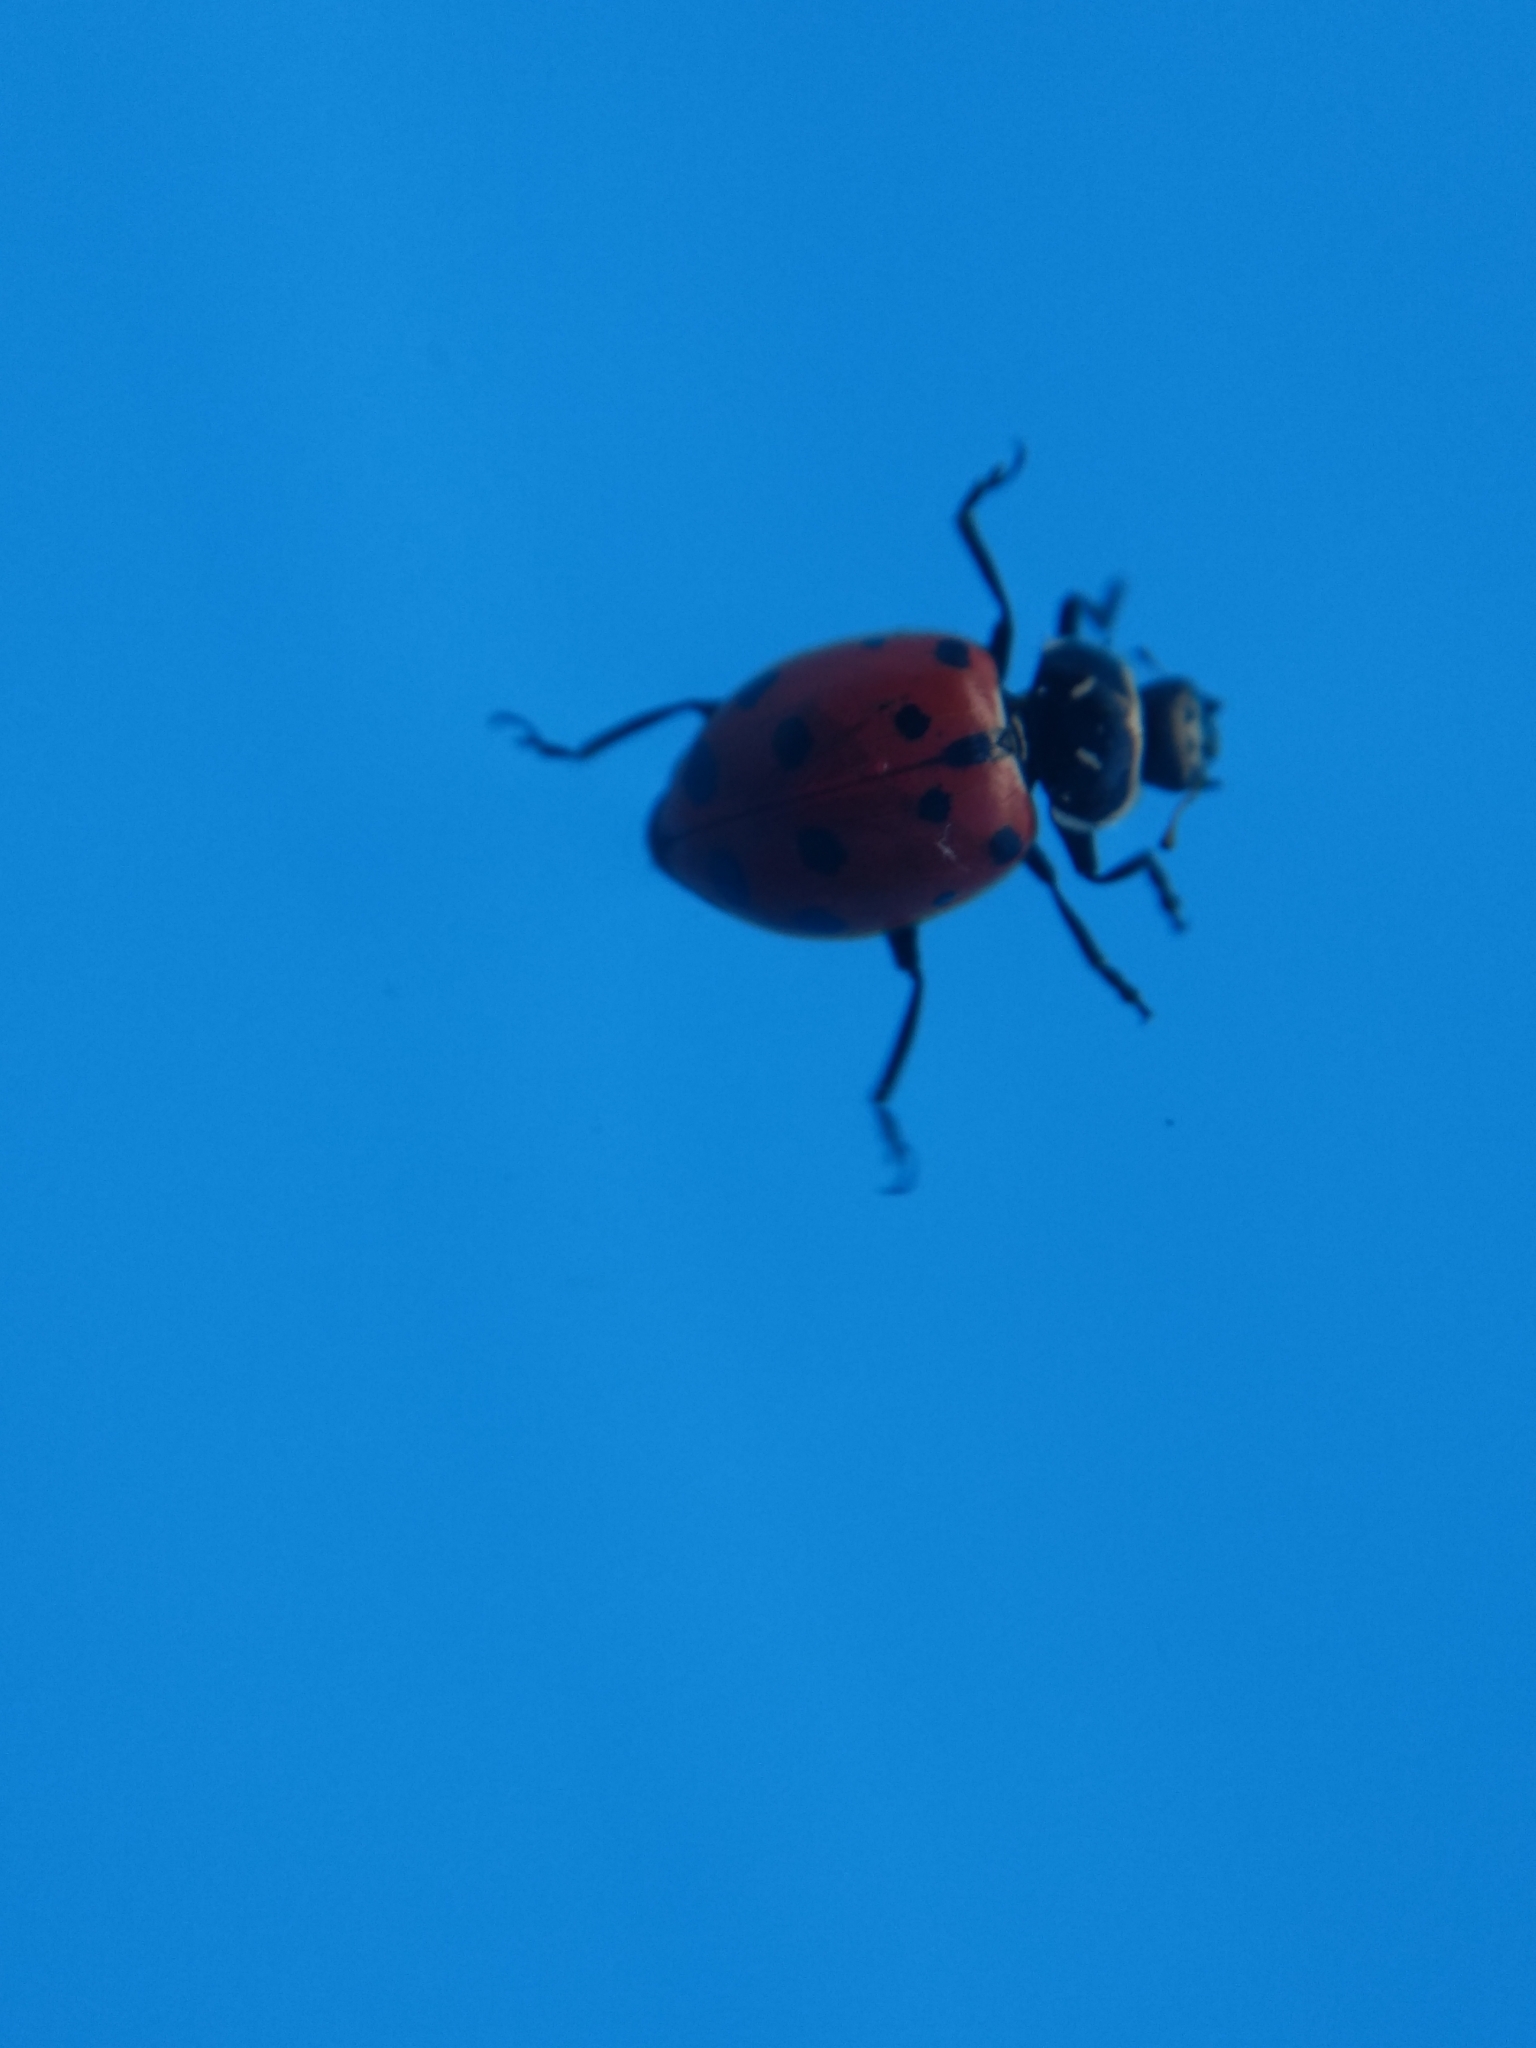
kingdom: Animalia
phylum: Arthropoda
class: Insecta
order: Coleoptera
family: Coccinellidae
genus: Hippodamia
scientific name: Hippodamia convergens
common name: Convergent lady beetle
